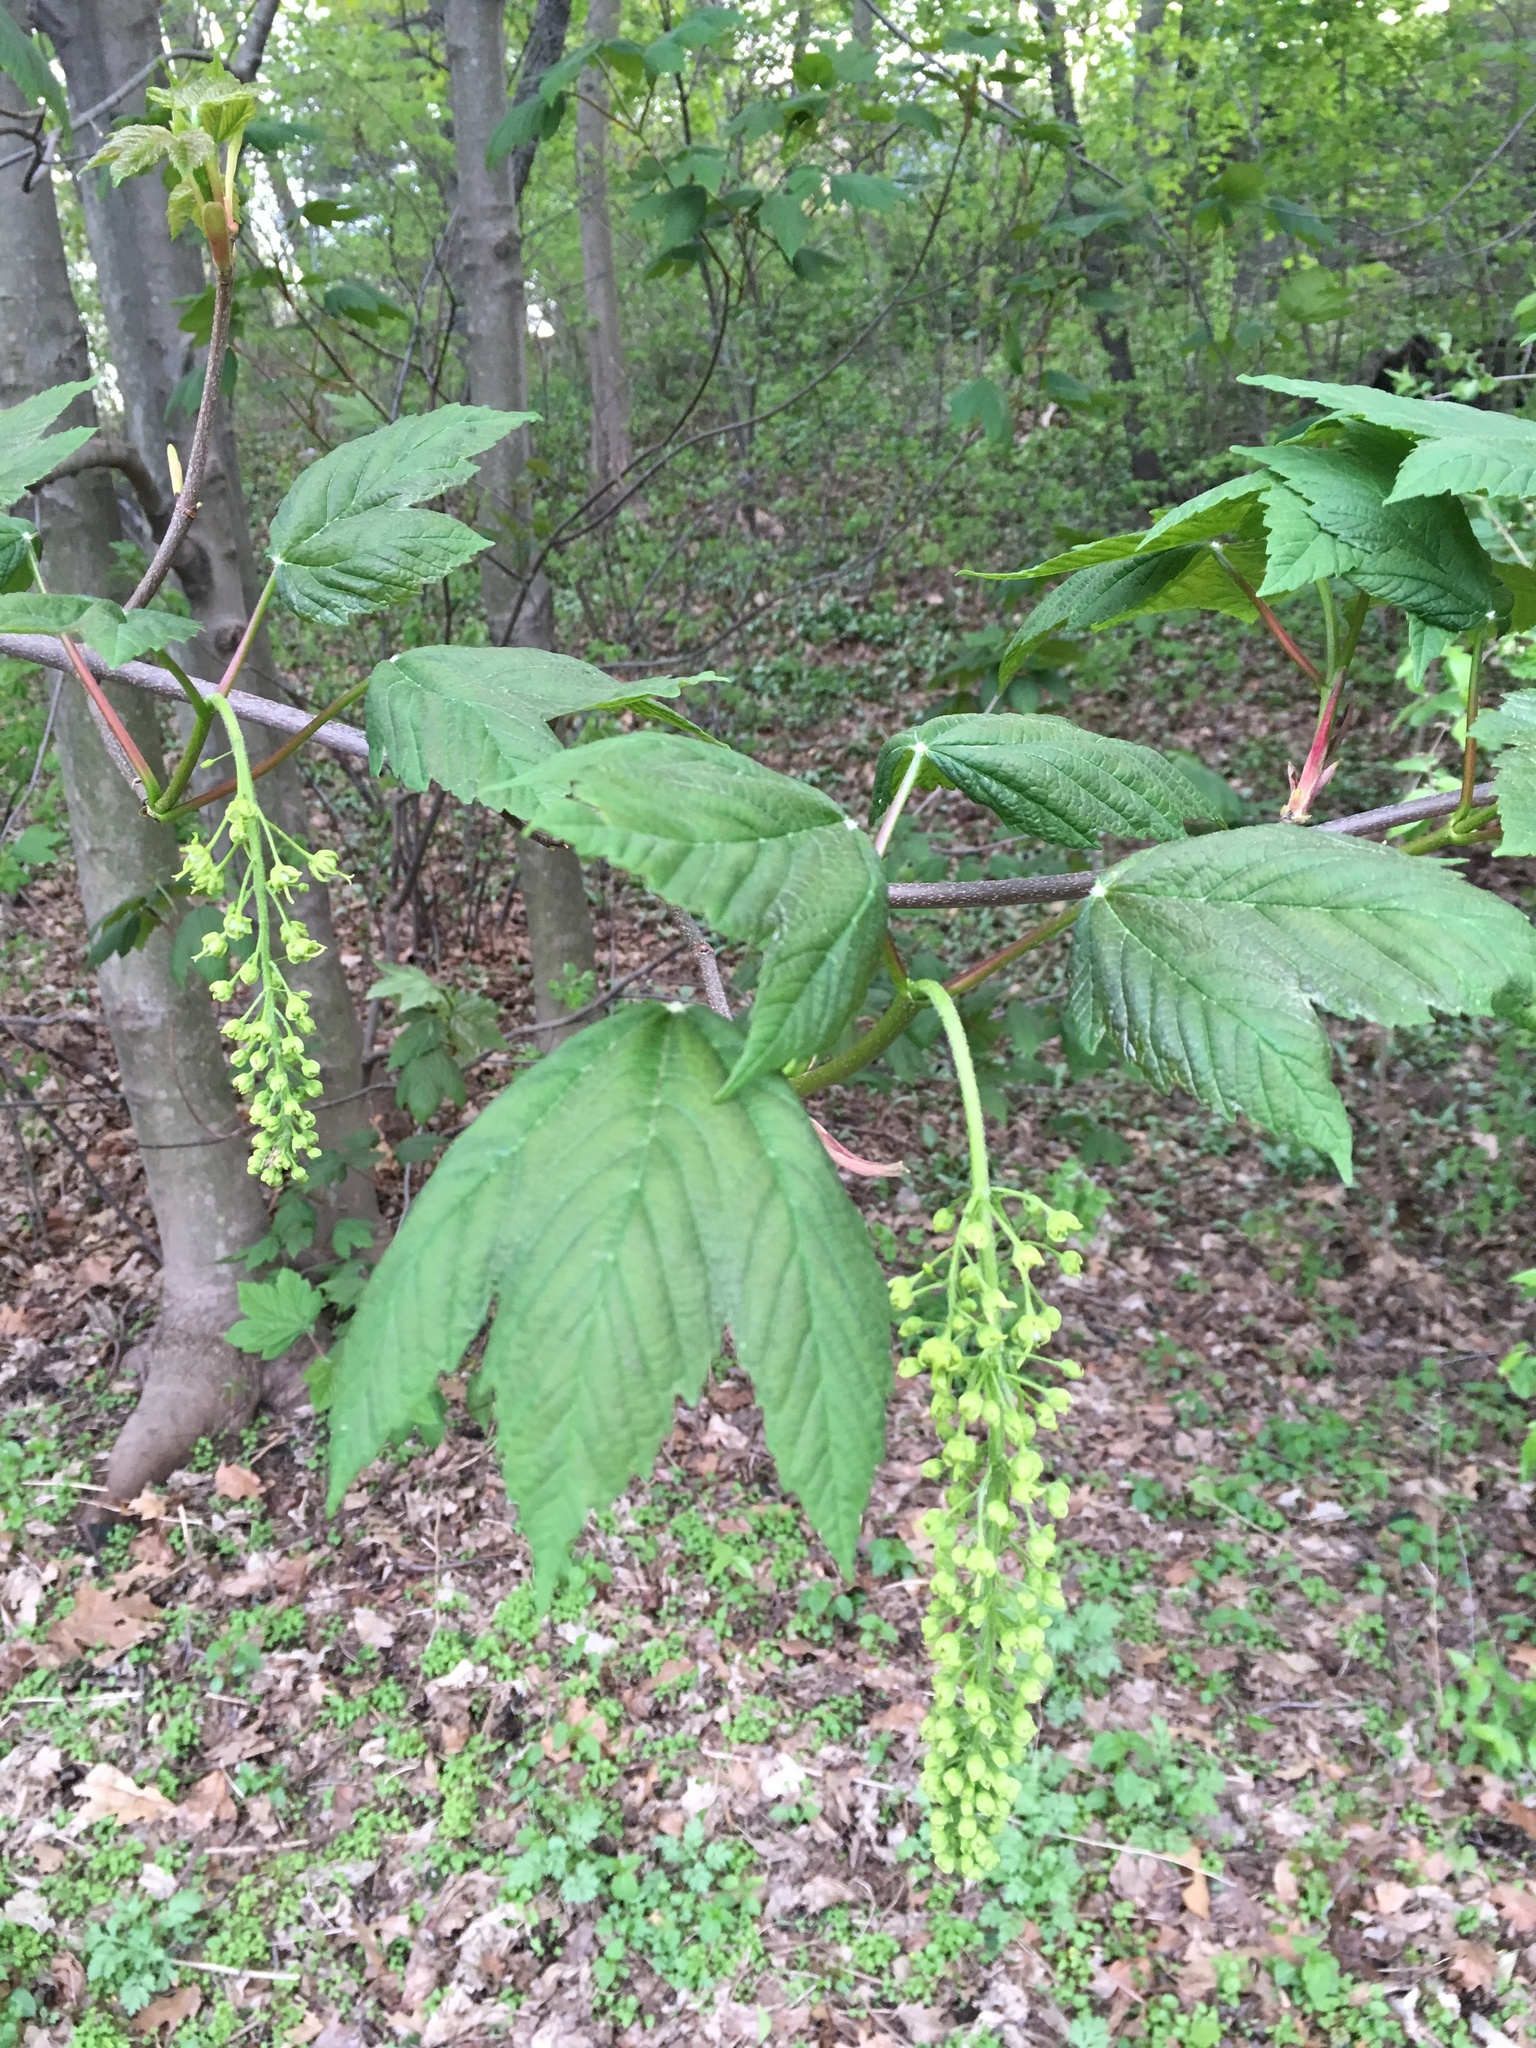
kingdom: Plantae
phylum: Tracheophyta
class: Magnoliopsida
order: Sapindales
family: Sapindaceae
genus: Acer
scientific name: Acer pseudoplatanus
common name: Sycamore
